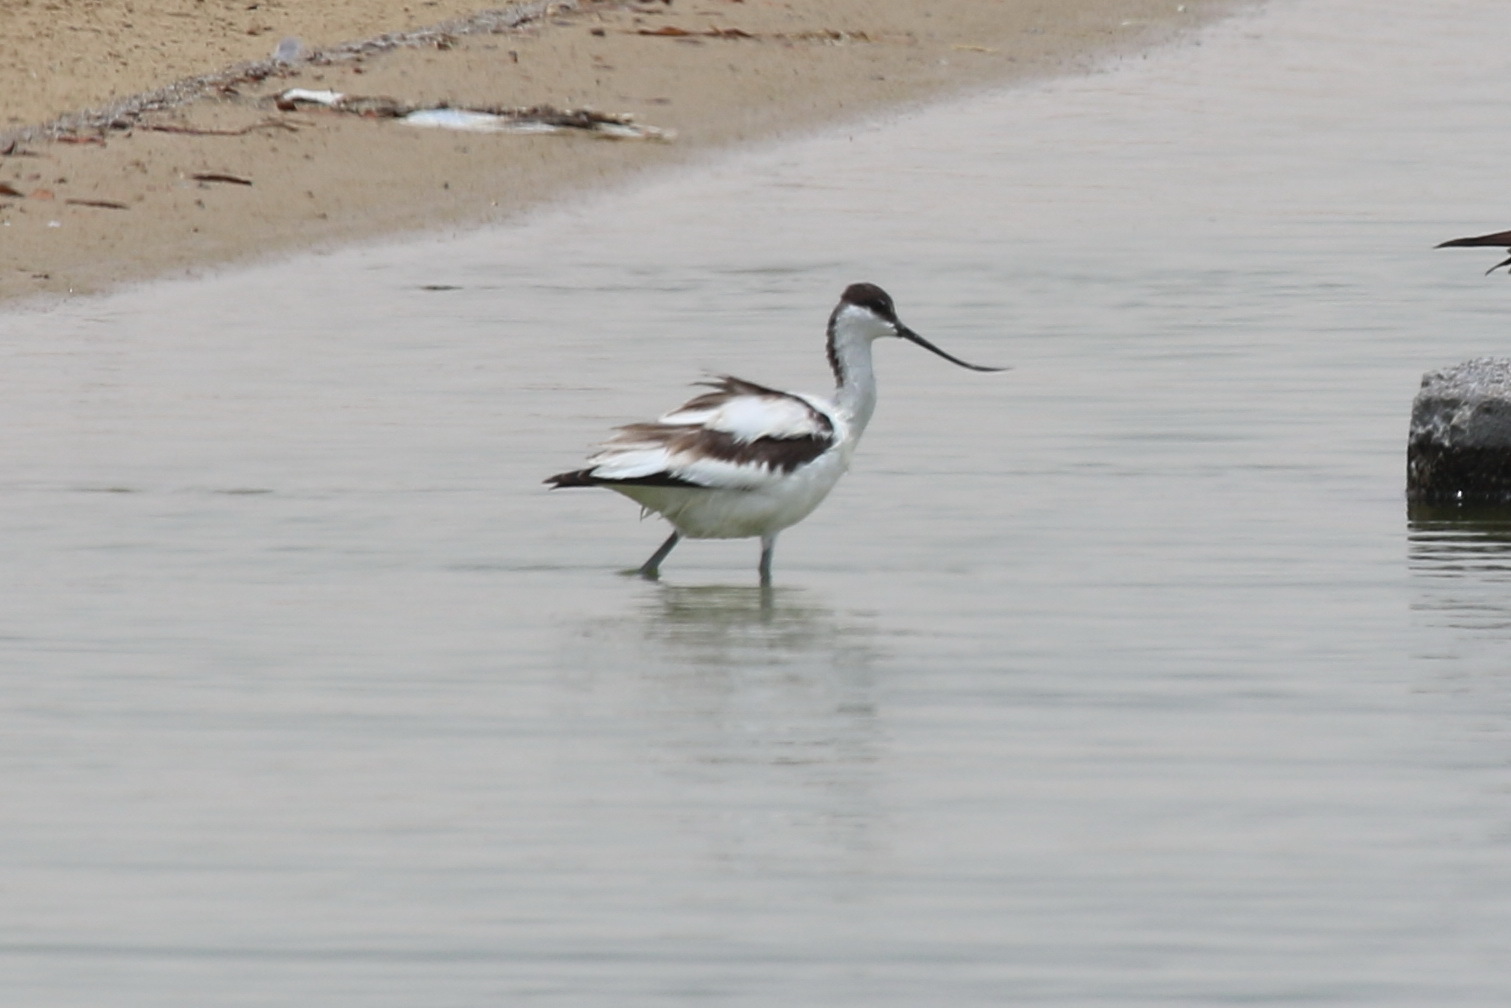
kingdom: Animalia
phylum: Chordata
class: Aves
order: Charadriiformes
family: Recurvirostridae
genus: Recurvirostra
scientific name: Recurvirostra avosetta
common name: Pied avocet
